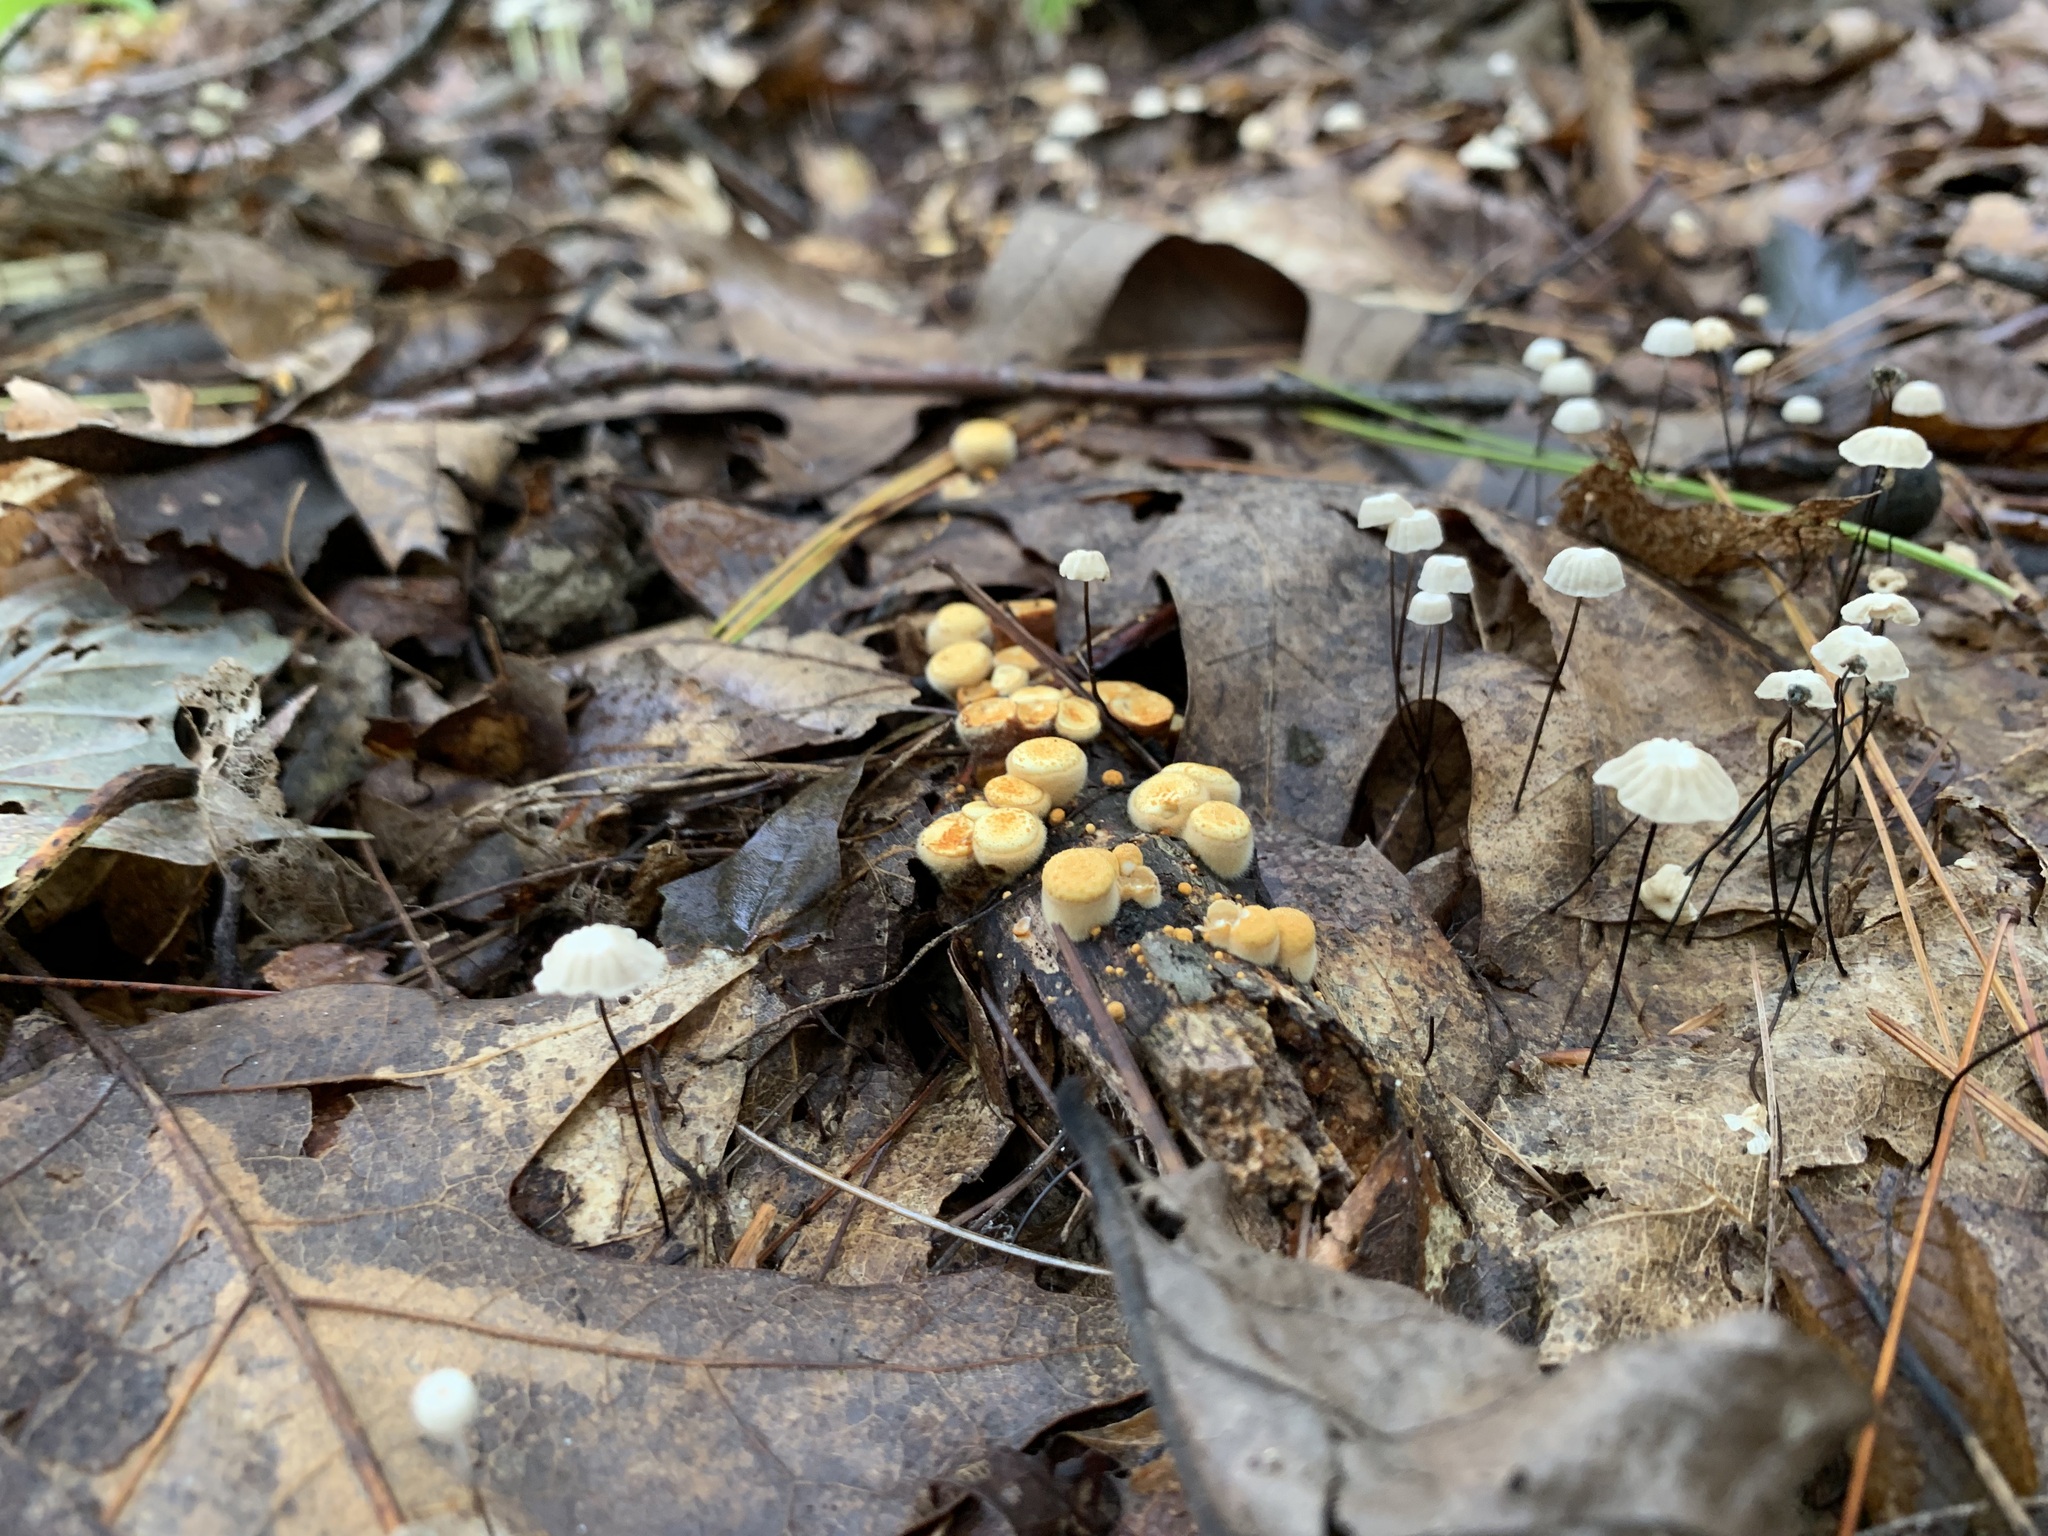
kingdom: Fungi
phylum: Basidiomycota
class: Agaricomycetes
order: Agaricales
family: Nidulariaceae
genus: Crucibulum
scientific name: Crucibulum laeve
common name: Common bird's nest
